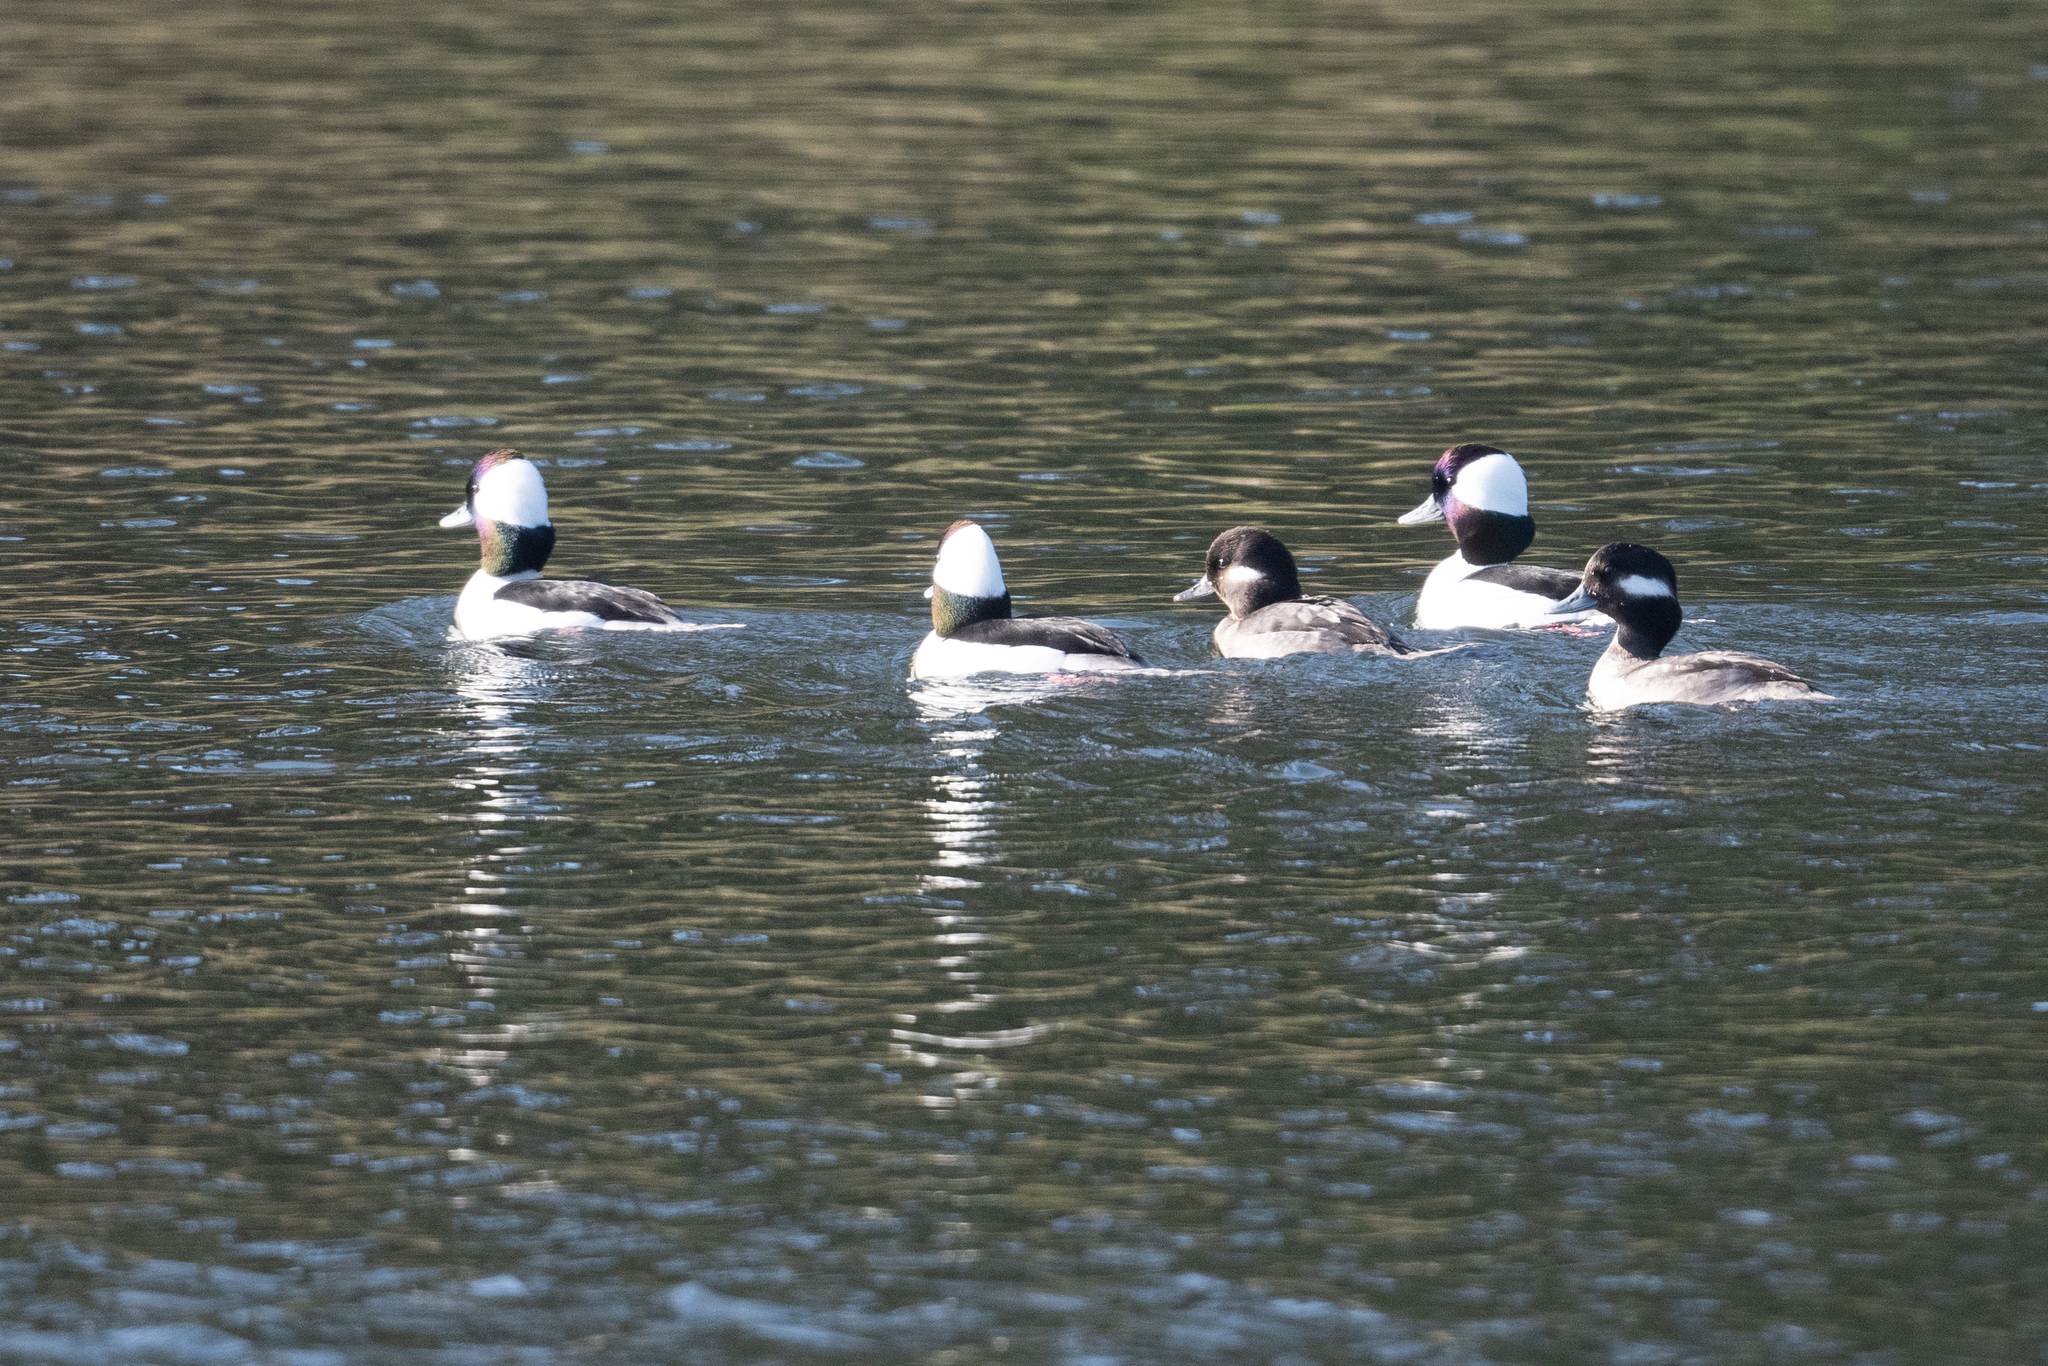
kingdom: Animalia
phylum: Chordata
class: Aves
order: Anseriformes
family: Anatidae
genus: Bucephala
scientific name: Bucephala albeola
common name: Bufflehead
